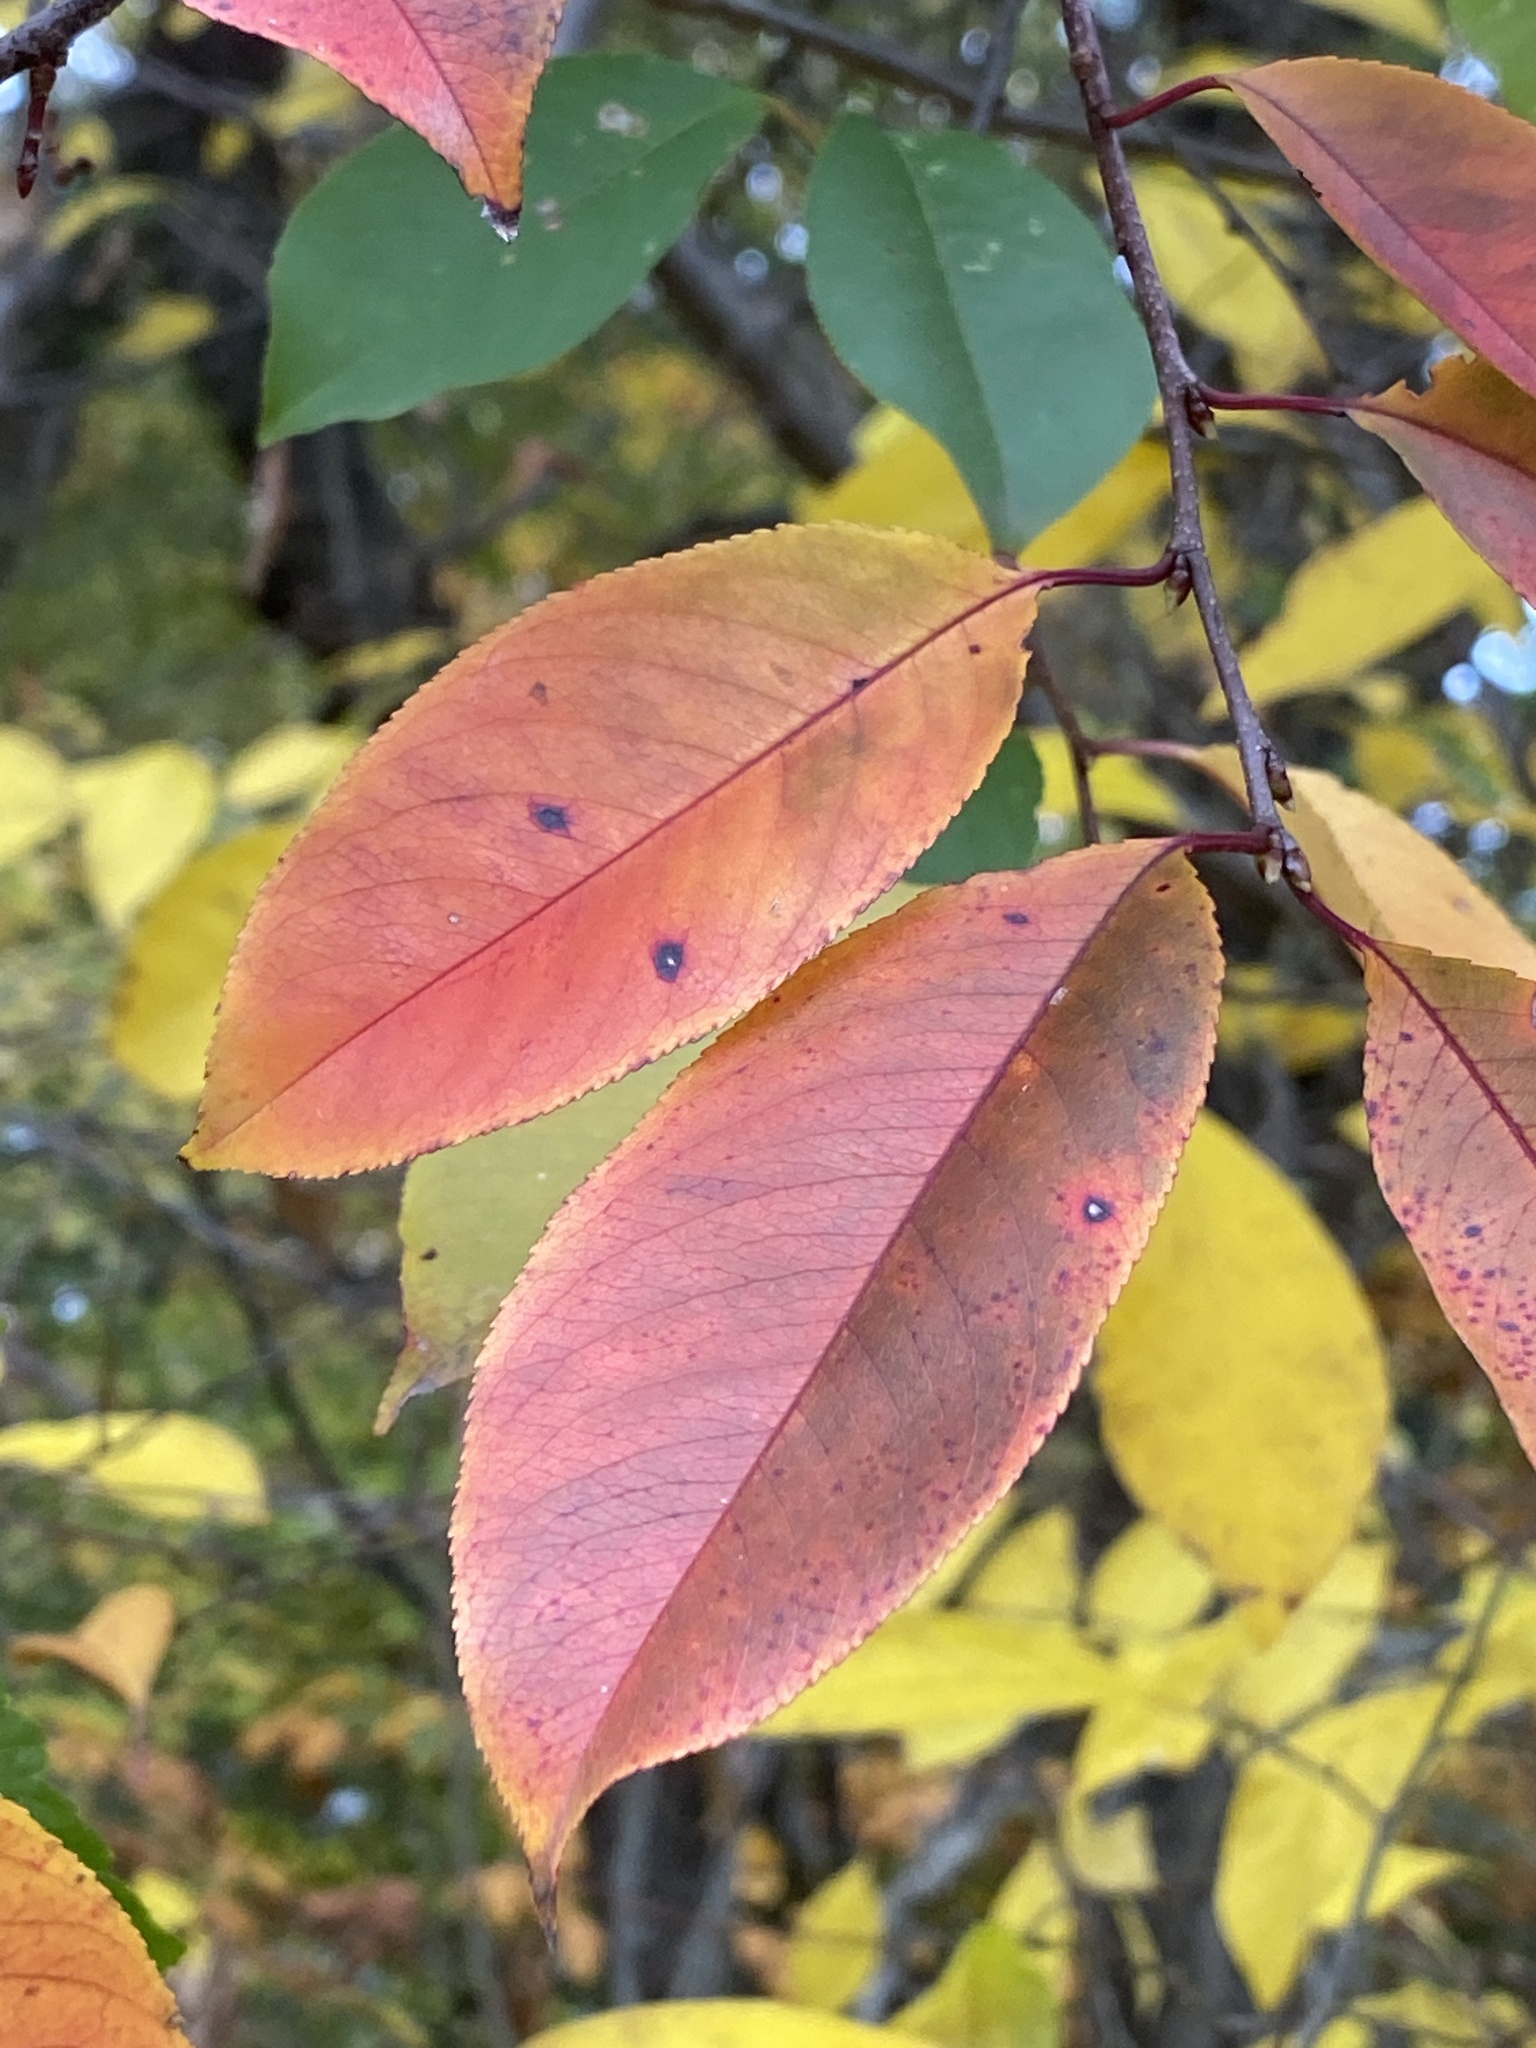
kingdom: Plantae
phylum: Tracheophyta
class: Magnoliopsida
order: Rosales
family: Rosaceae
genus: Prunus
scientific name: Prunus serotina
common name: Black cherry
